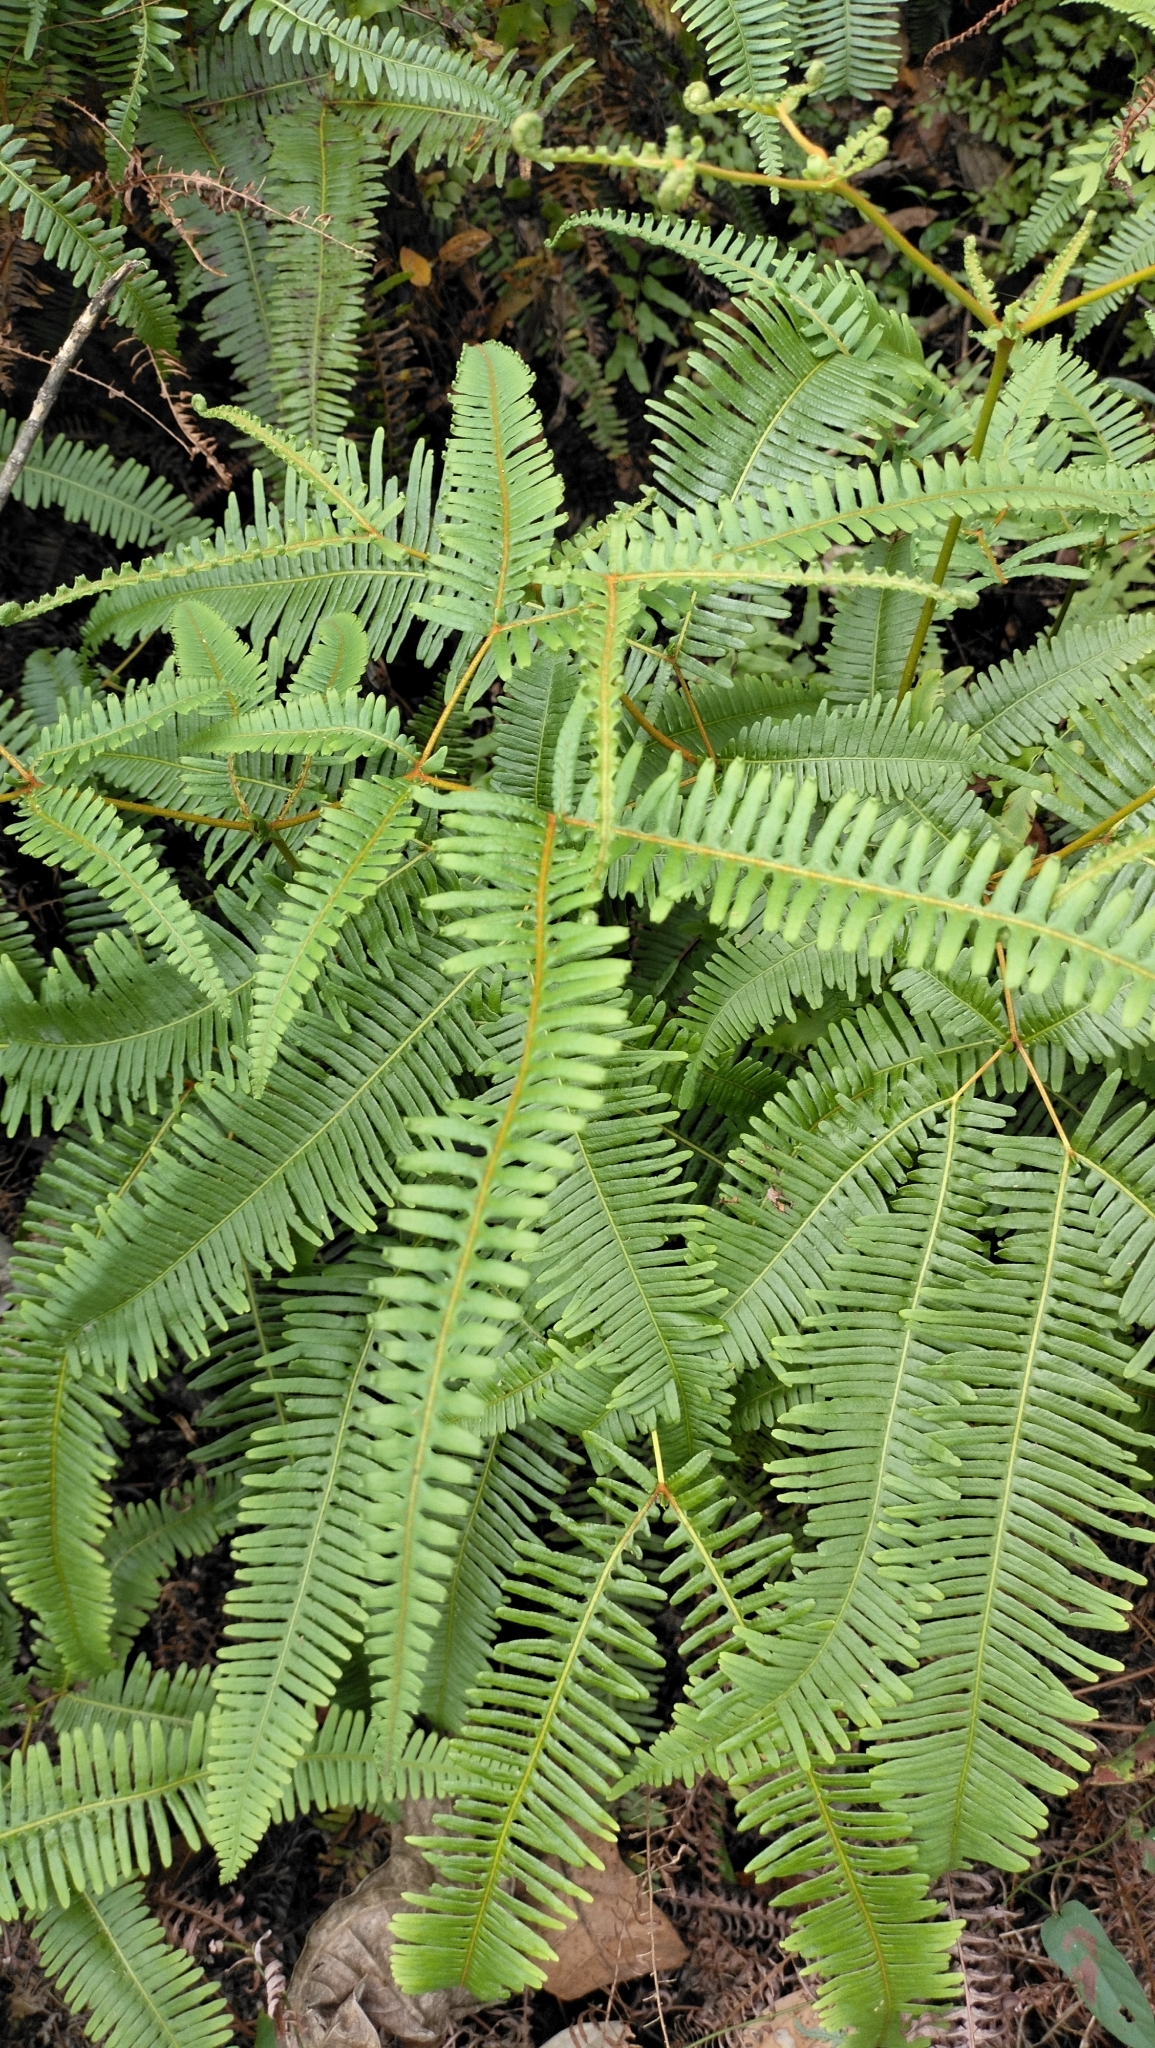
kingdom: Plantae
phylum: Tracheophyta
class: Polypodiopsida
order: Gleicheniales
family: Gleicheniaceae
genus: Dicranopteris
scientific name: Dicranopteris linearis
